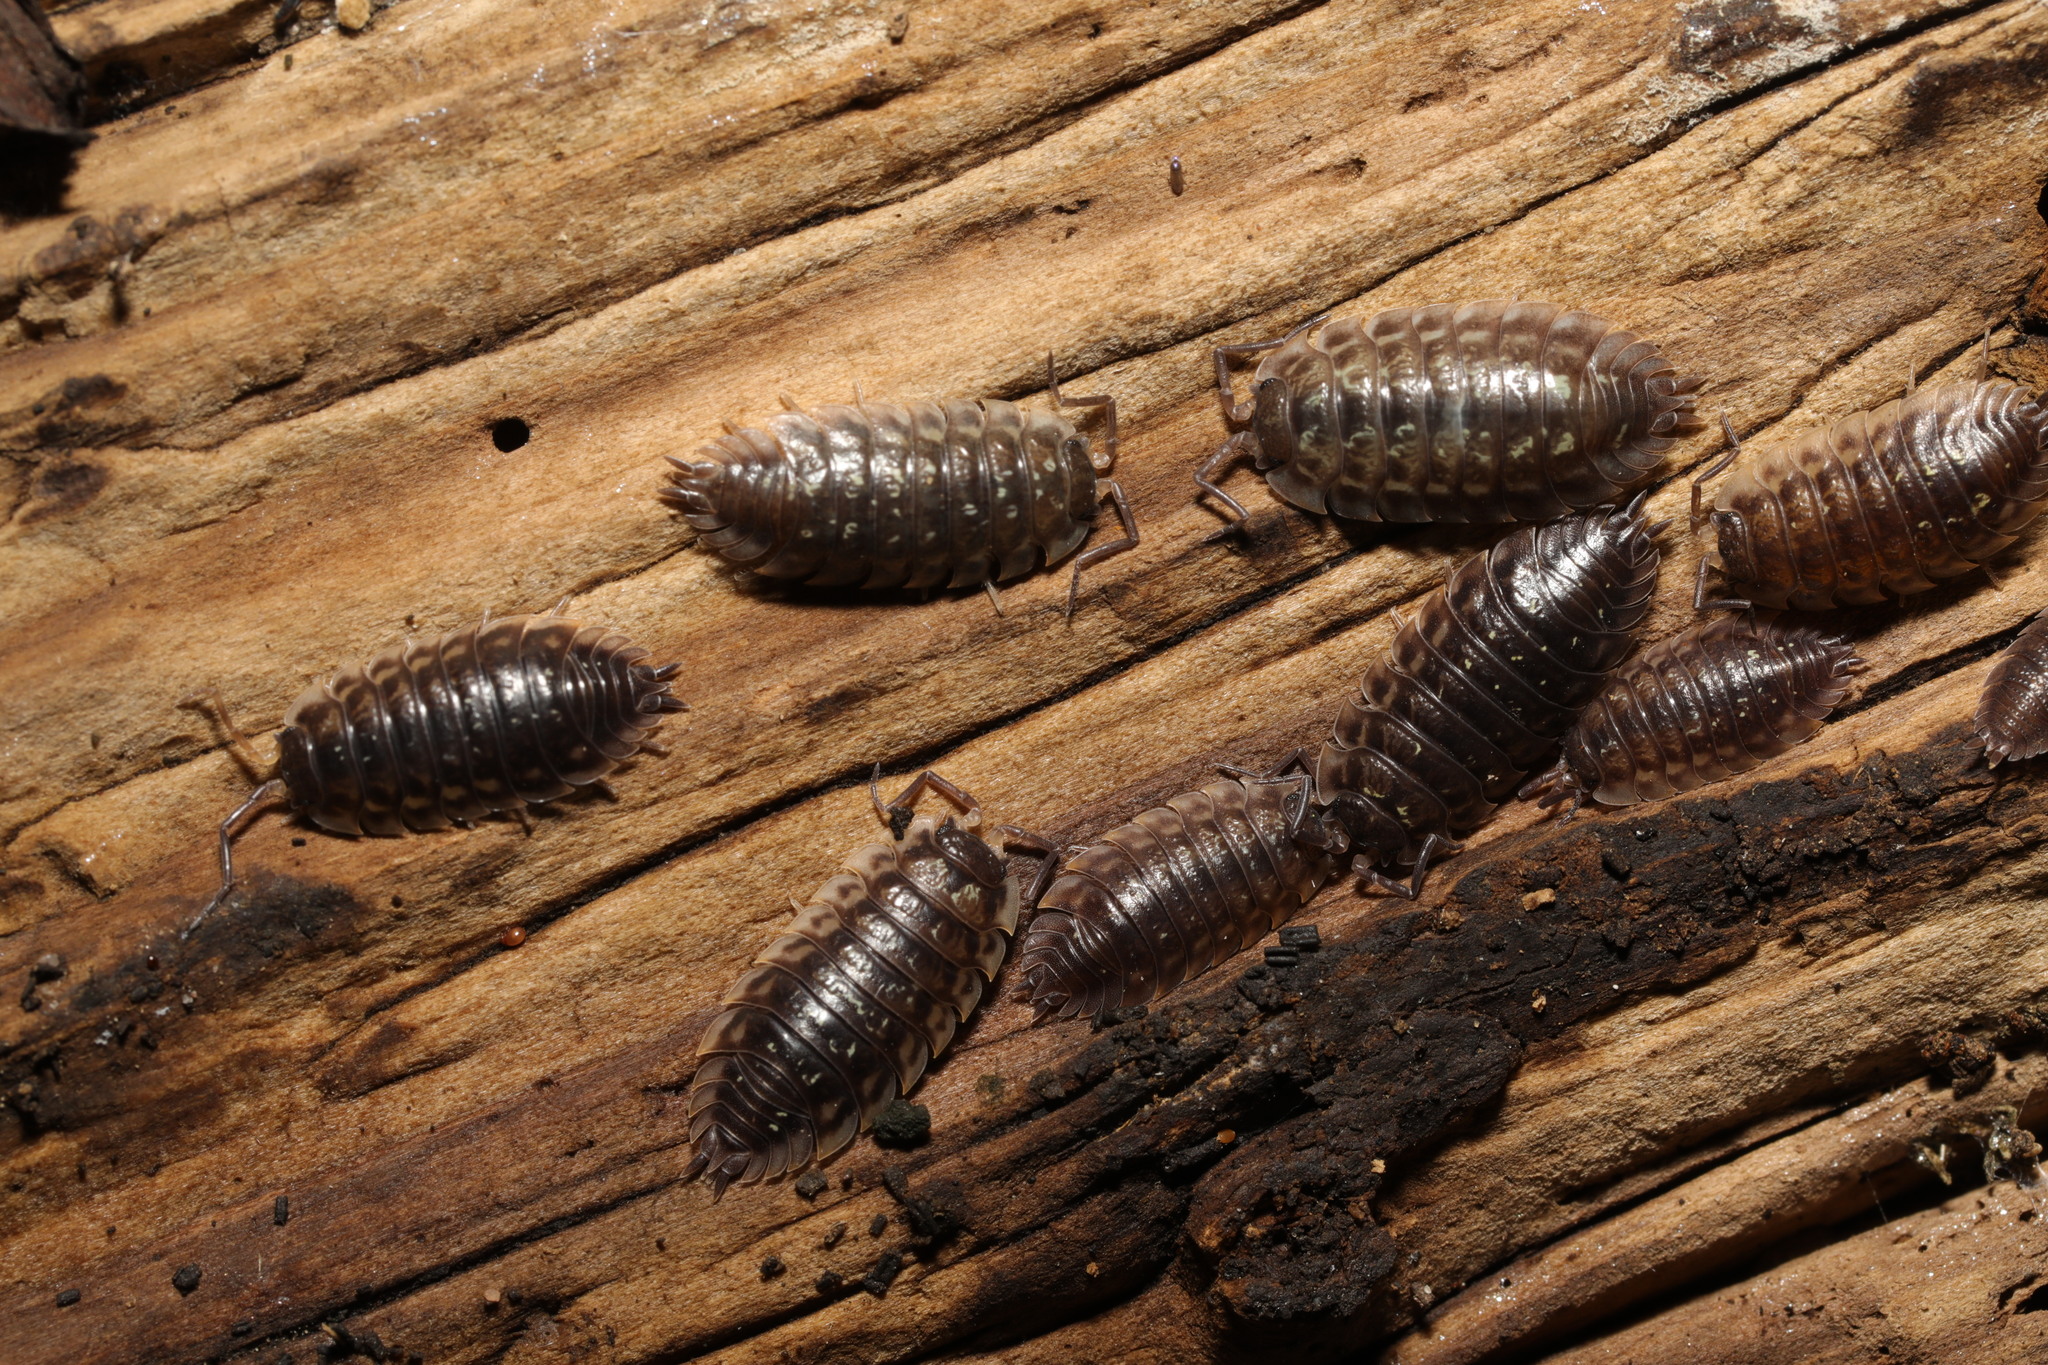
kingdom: Animalia
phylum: Arthropoda
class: Malacostraca
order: Isopoda
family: Oniscidae
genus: Oniscus
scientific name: Oniscus asellus
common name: Common shiny woodlouse
